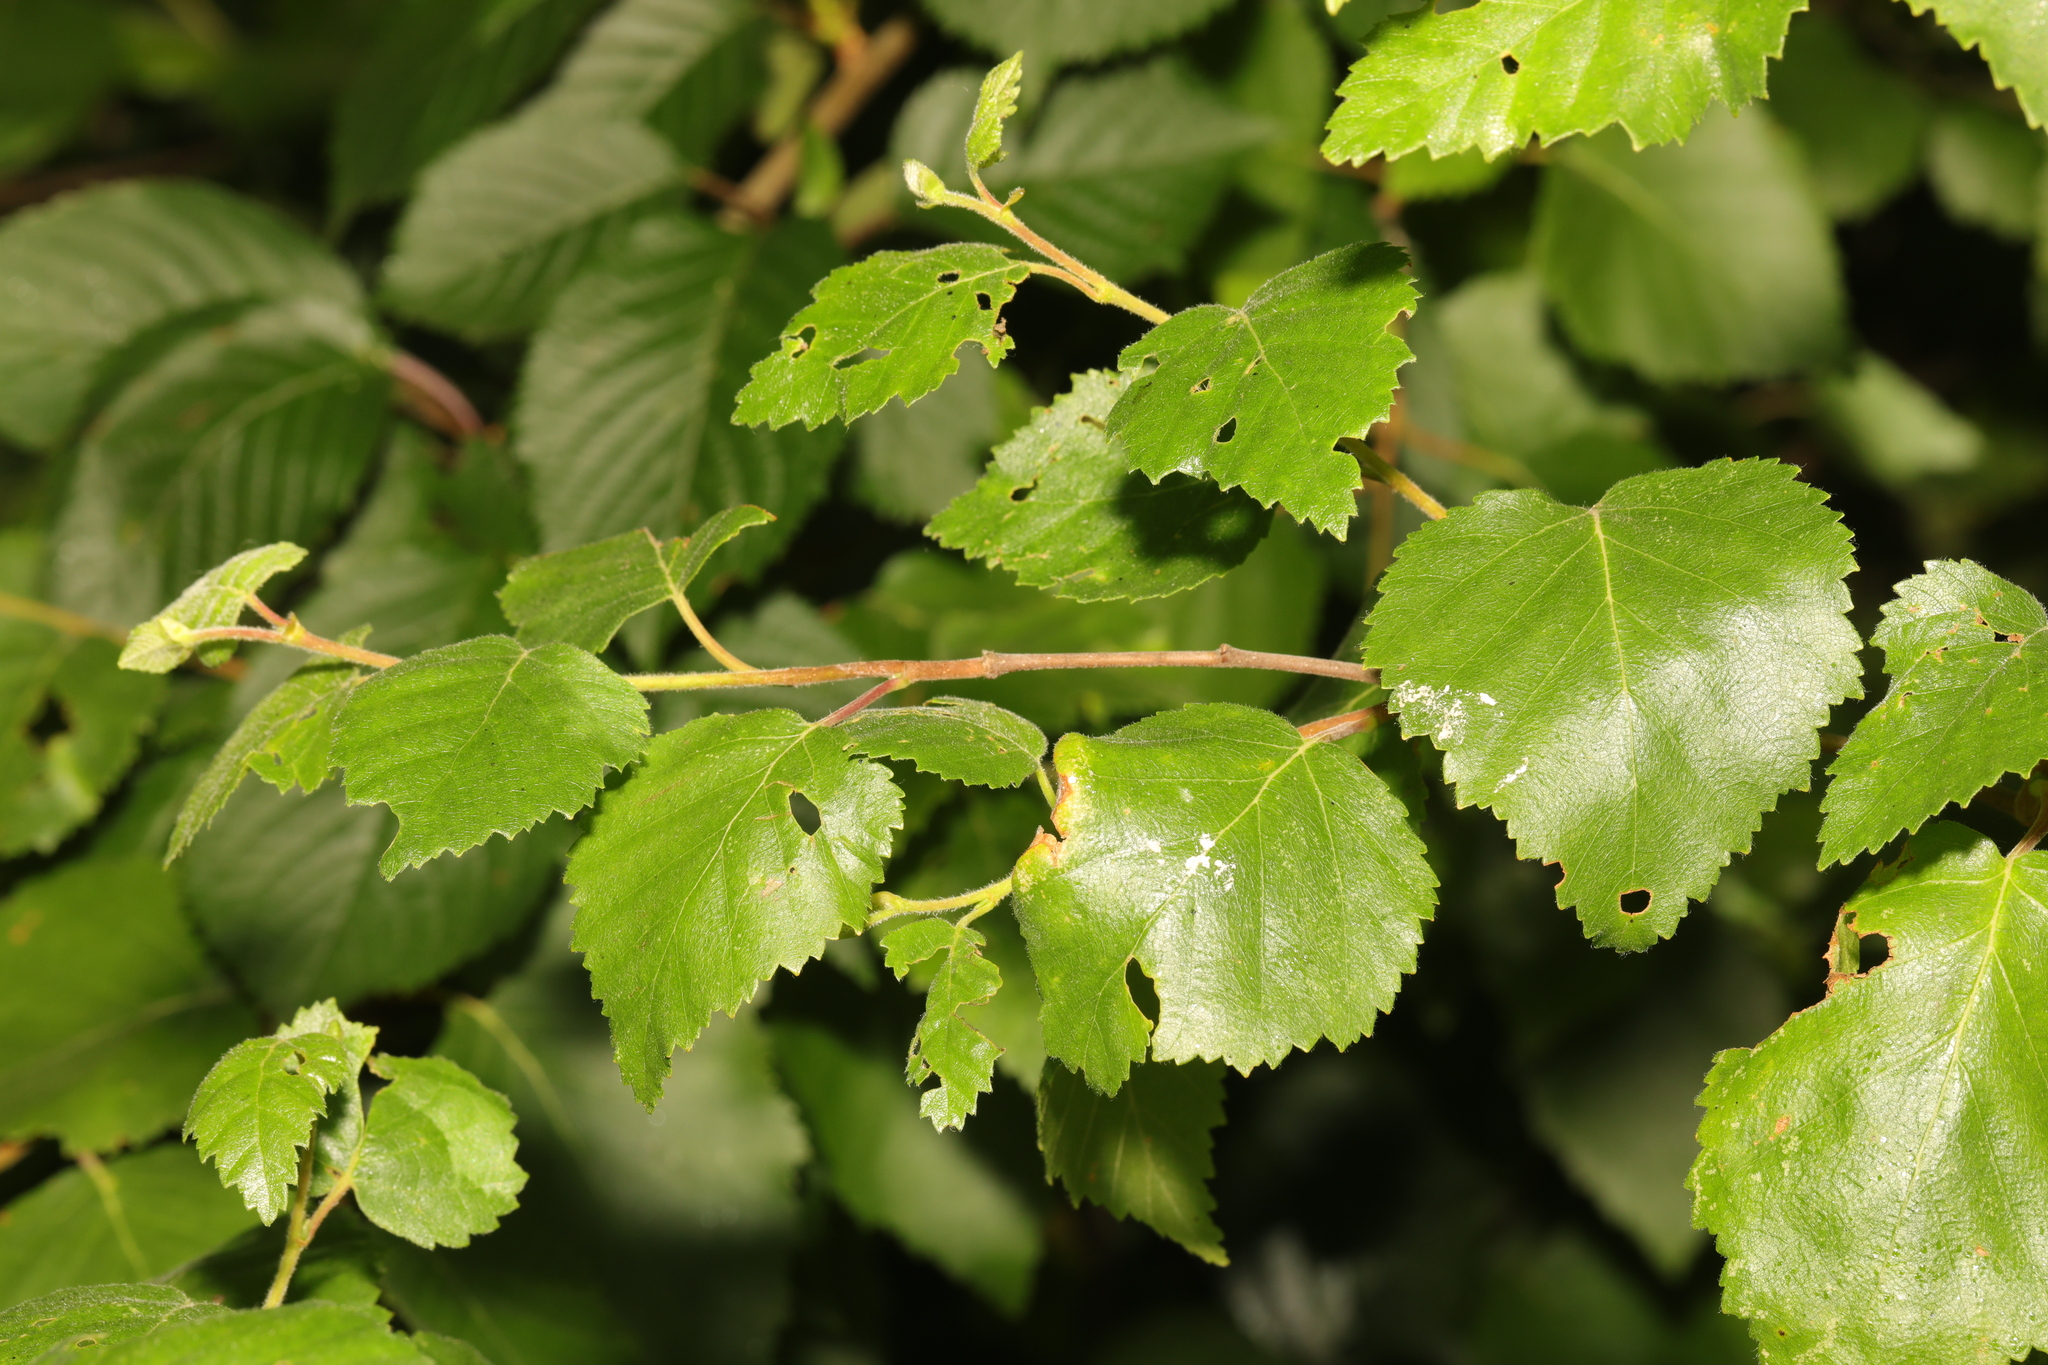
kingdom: Plantae
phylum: Tracheophyta
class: Magnoliopsida
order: Fagales
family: Betulaceae
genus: Betula
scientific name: Betula pubescens
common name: Downy birch
